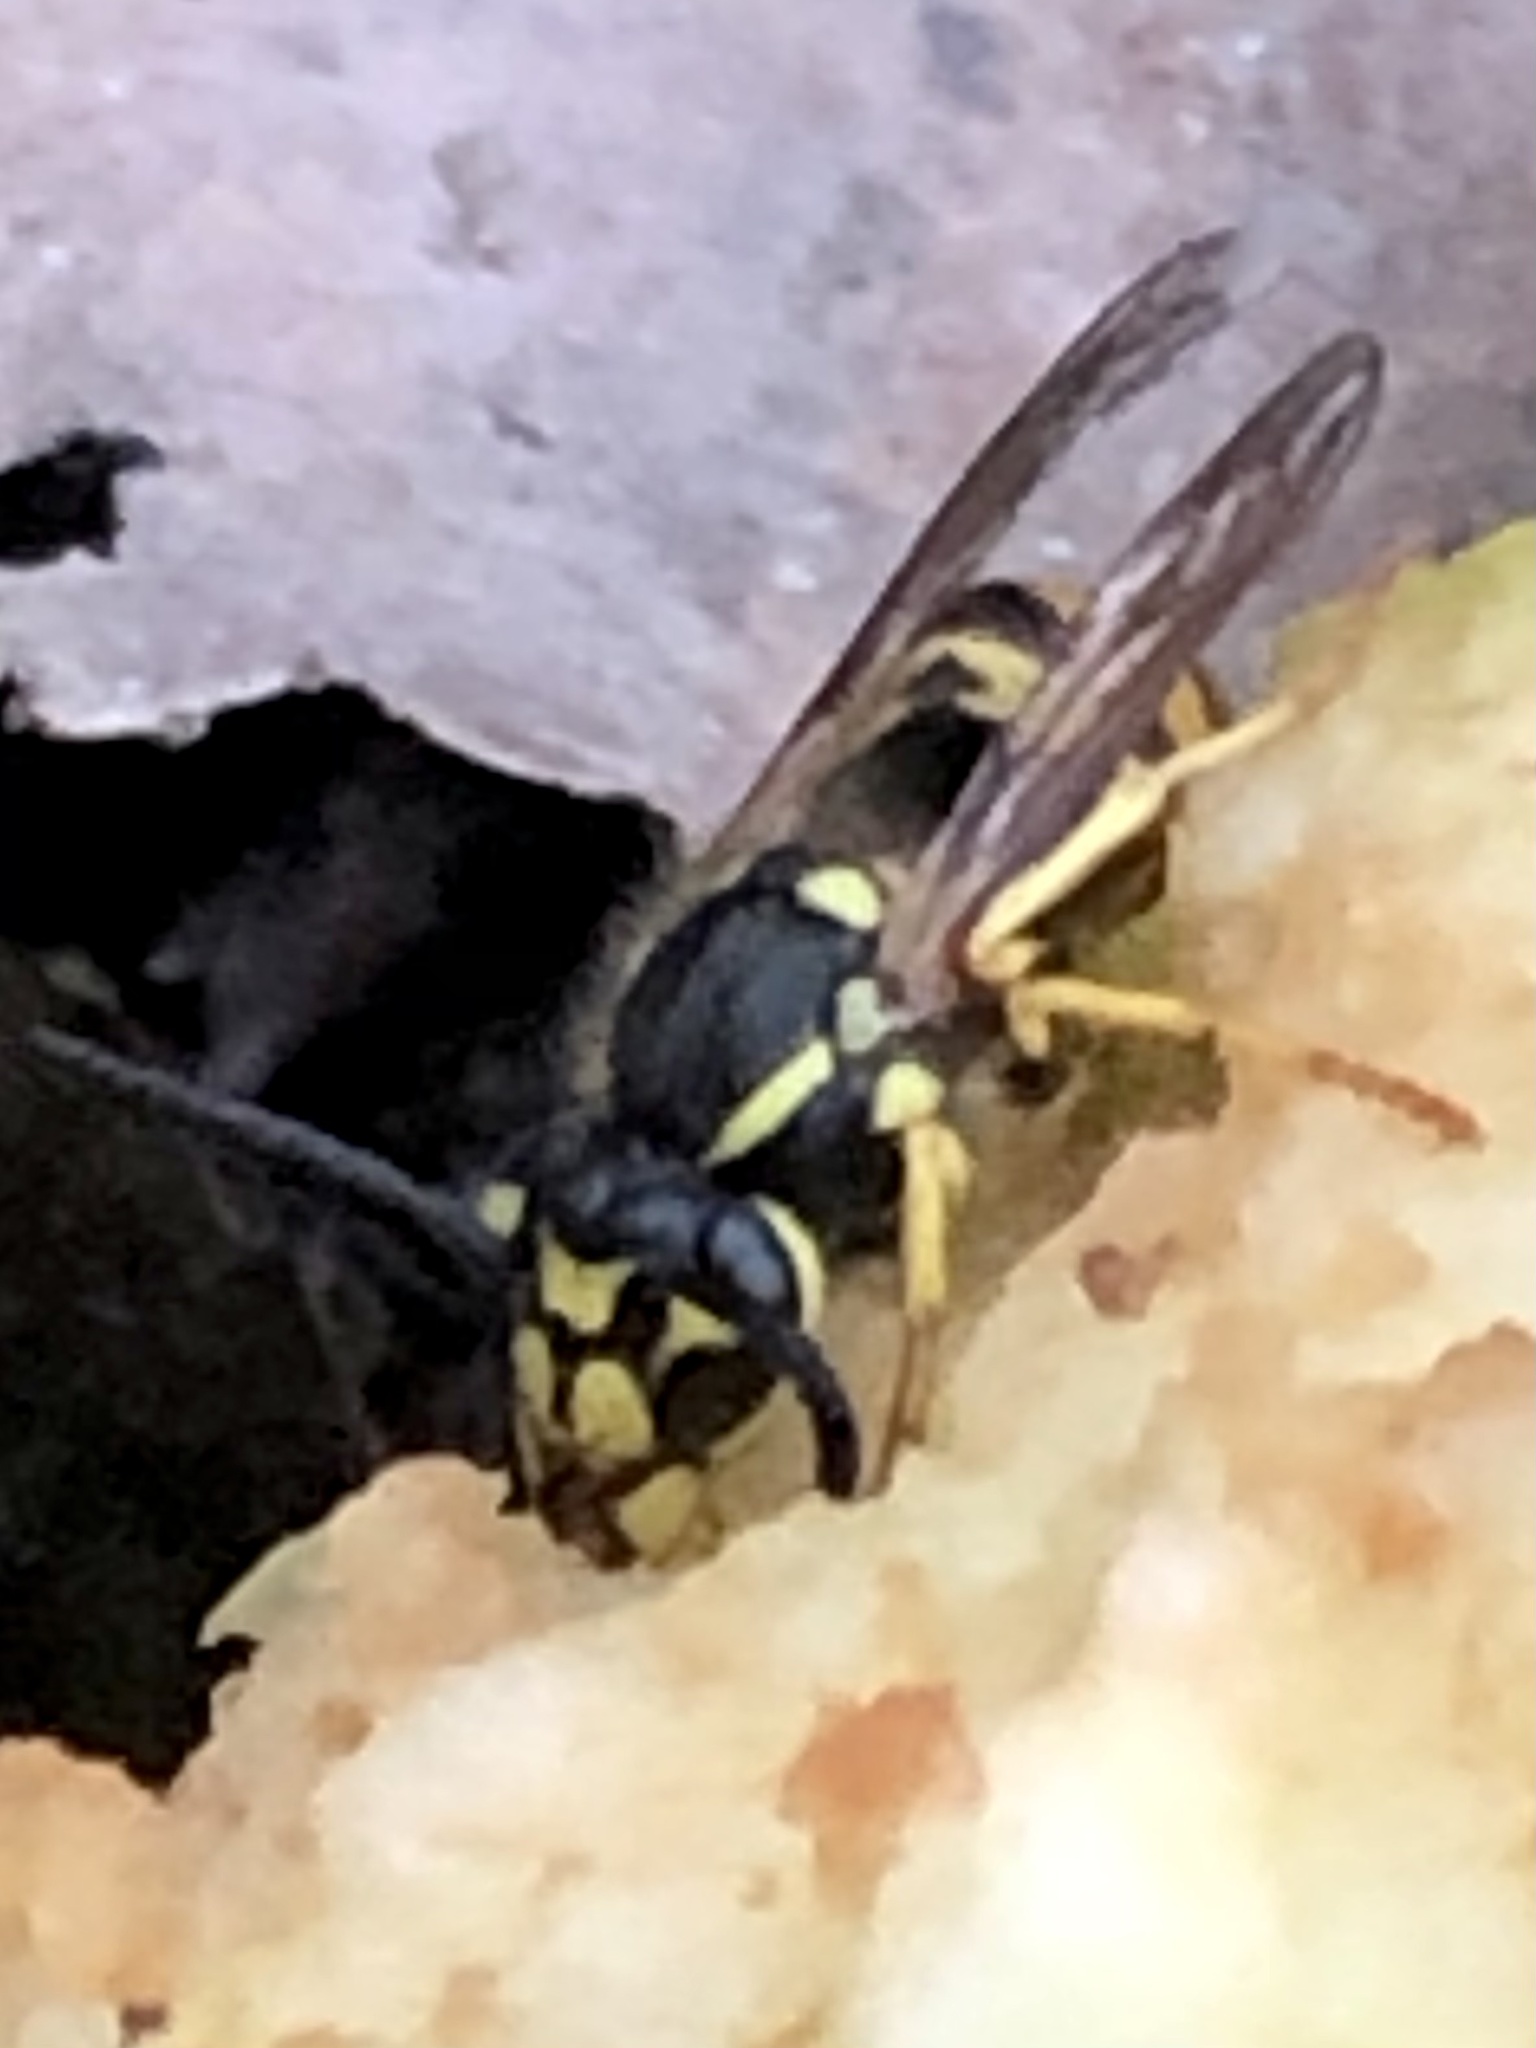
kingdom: Animalia
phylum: Arthropoda
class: Insecta
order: Hymenoptera
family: Vespidae
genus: Vespula
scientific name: Vespula germanica
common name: German wasp
